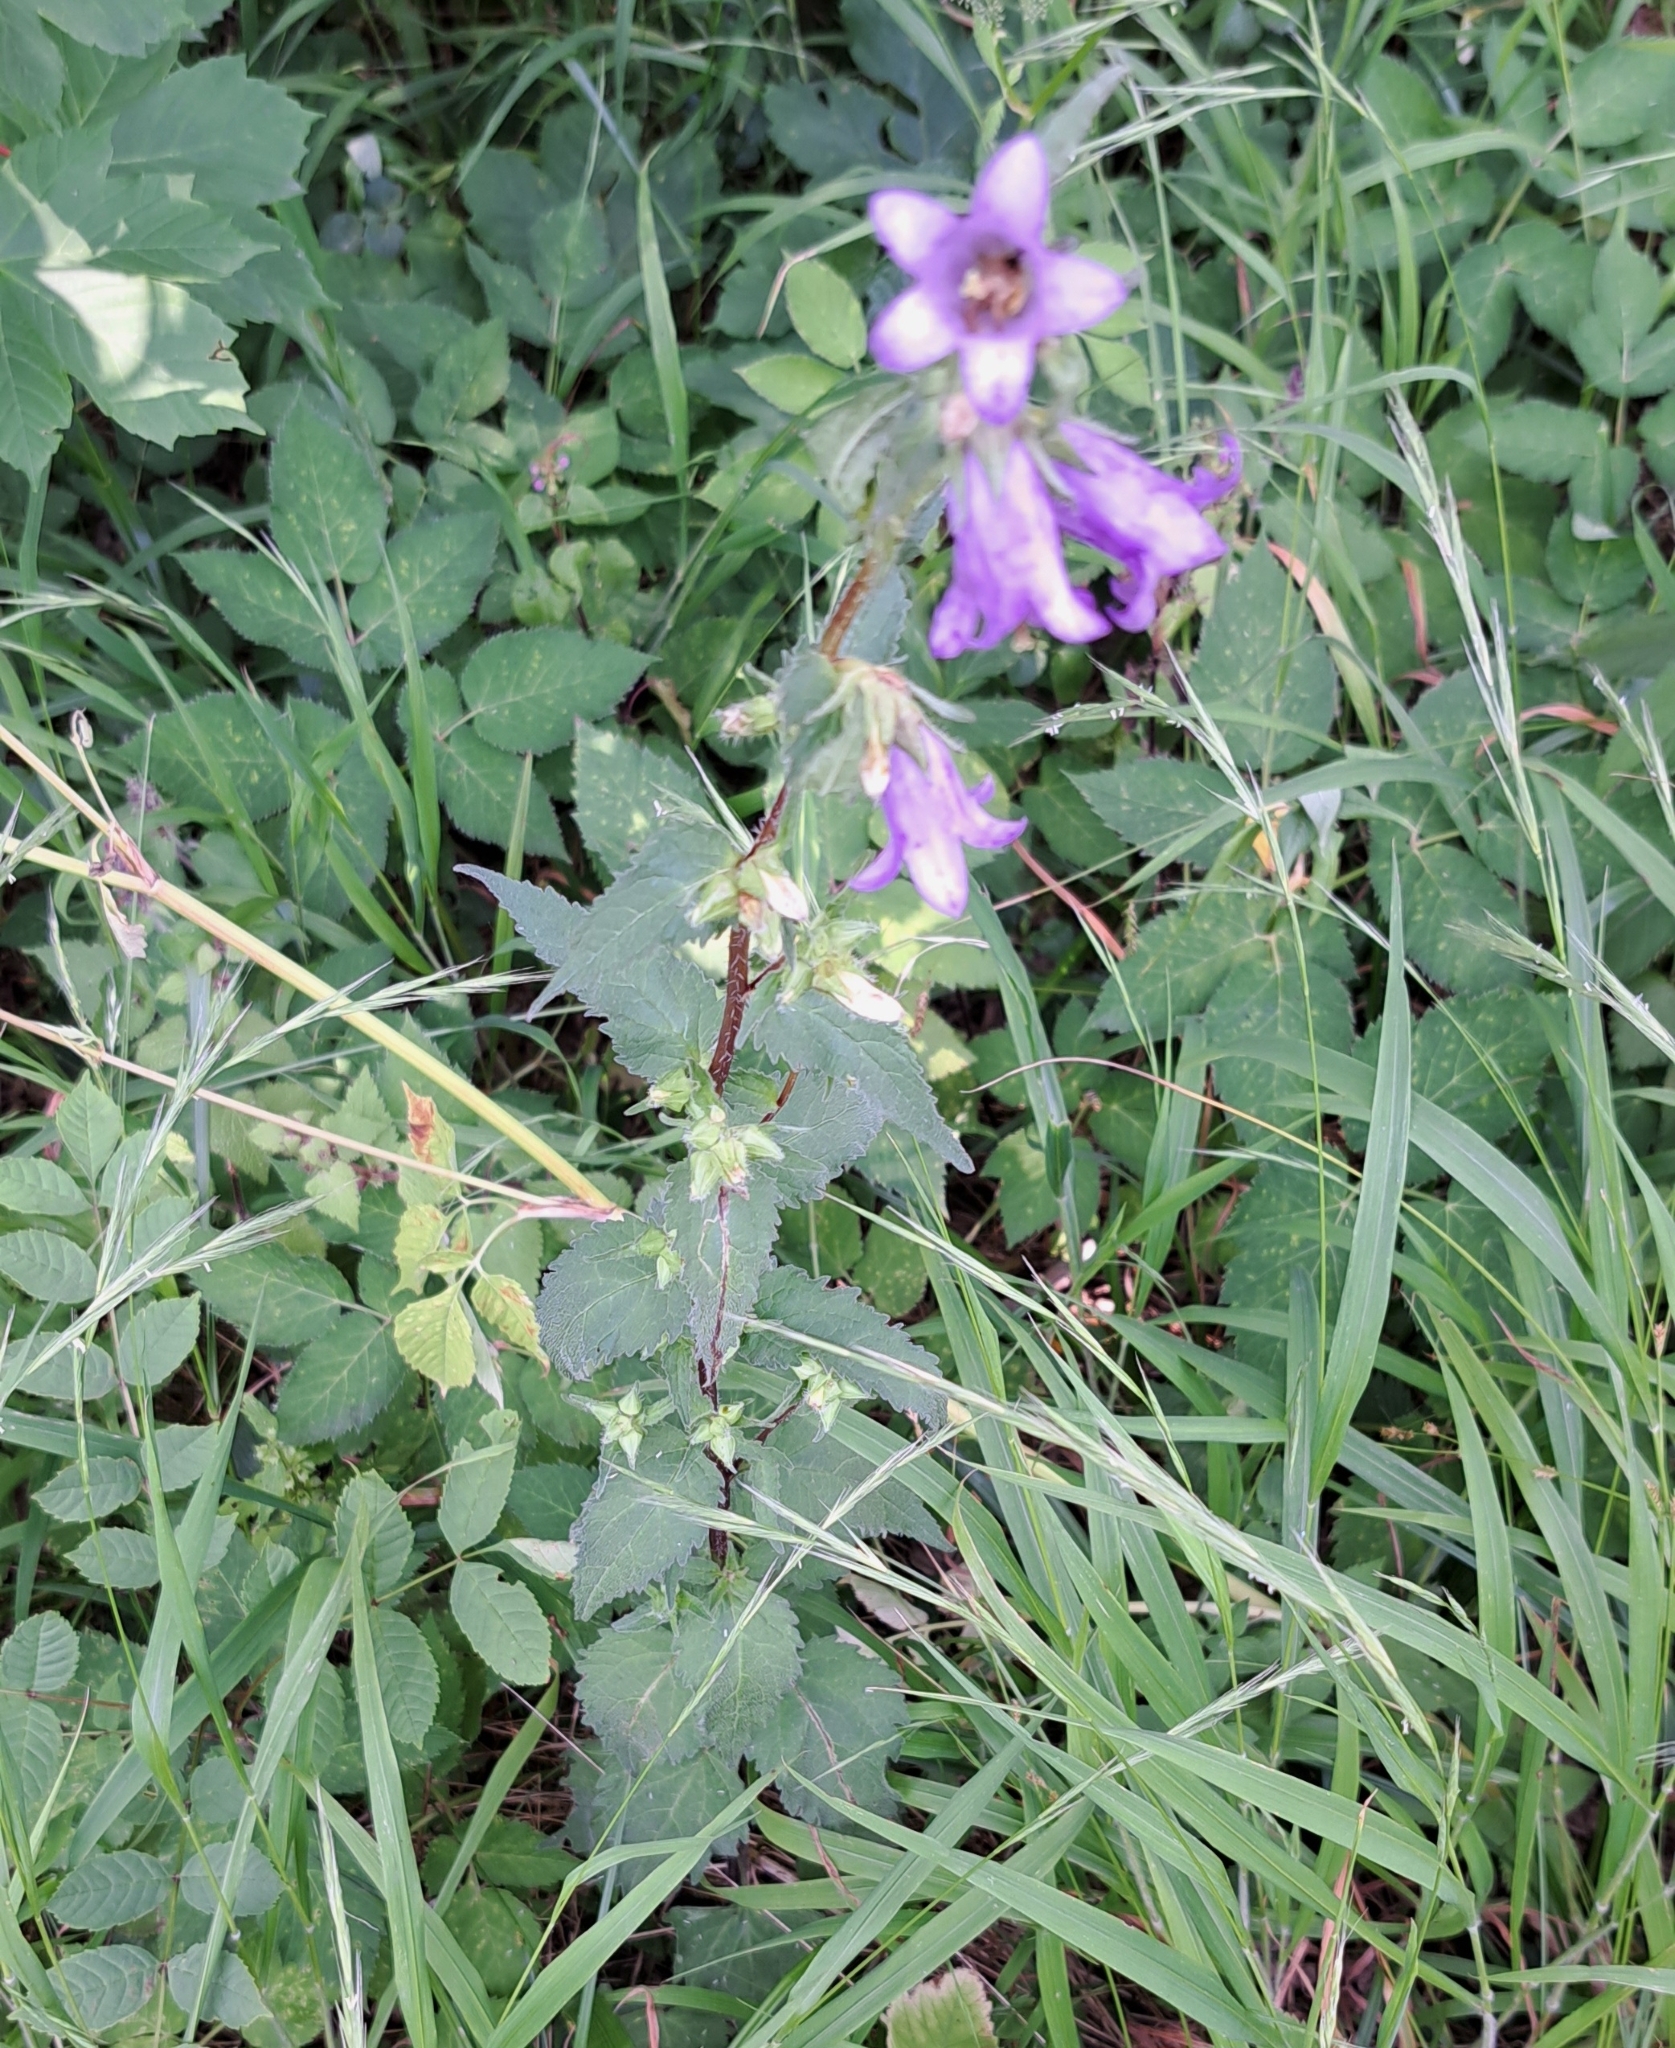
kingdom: Plantae
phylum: Tracheophyta
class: Magnoliopsida
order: Asterales
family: Campanulaceae
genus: Campanula
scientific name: Campanula trachelium
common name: Nettle-leaved bellflower
